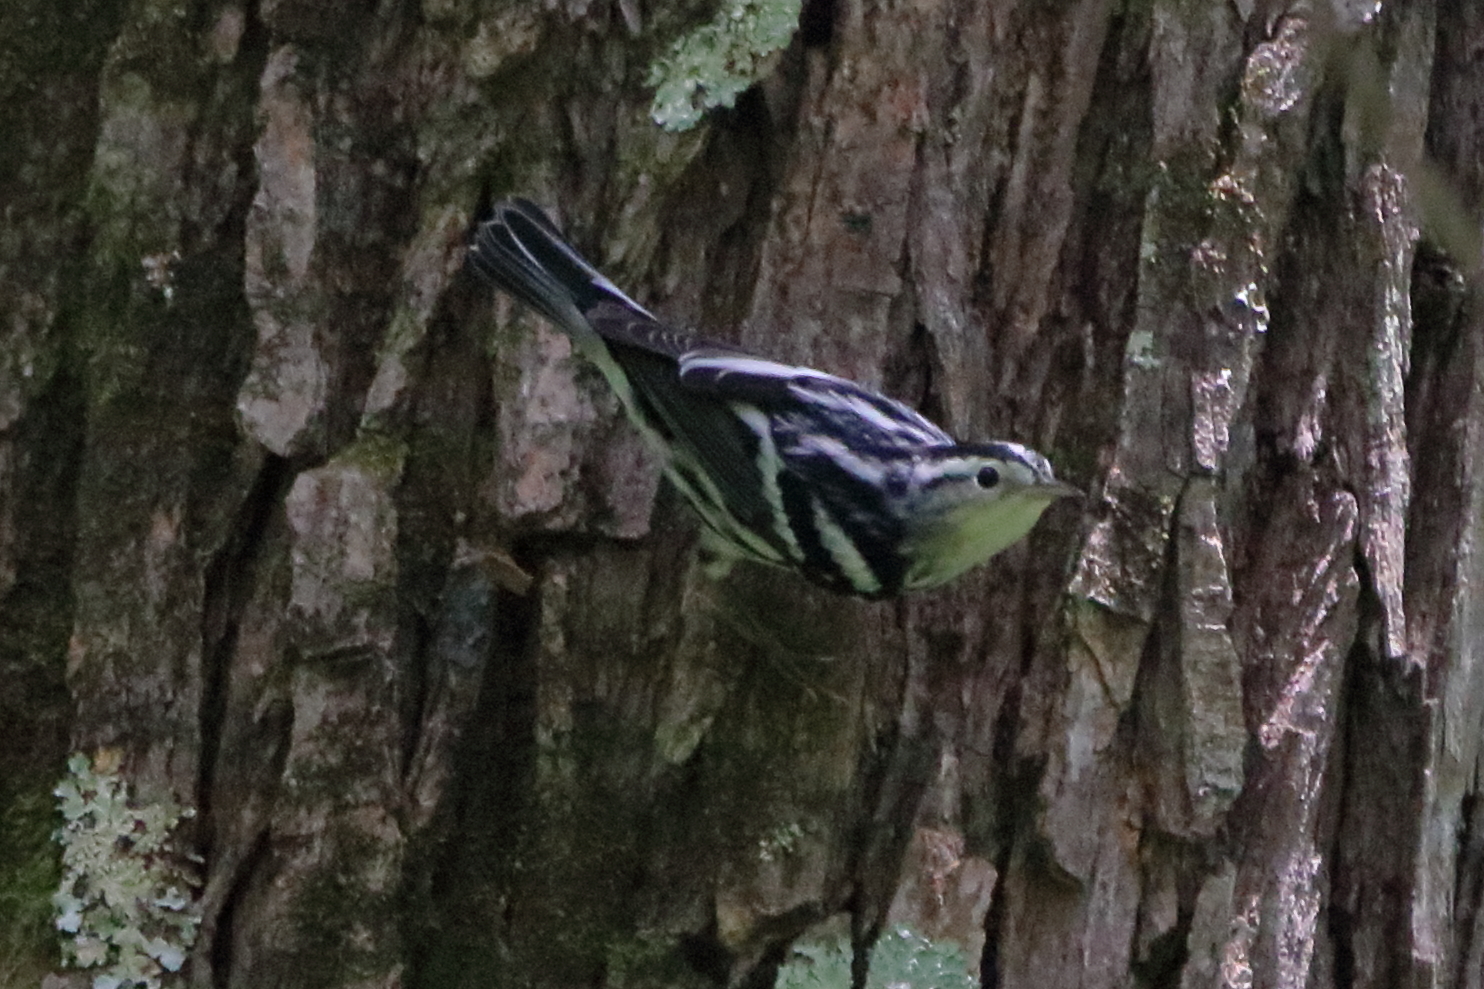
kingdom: Animalia
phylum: Chordata
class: Aves
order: Passeriformes
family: Parulidae
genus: Mniotilta
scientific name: Mniotilta varia
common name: Black-and-white warbler
